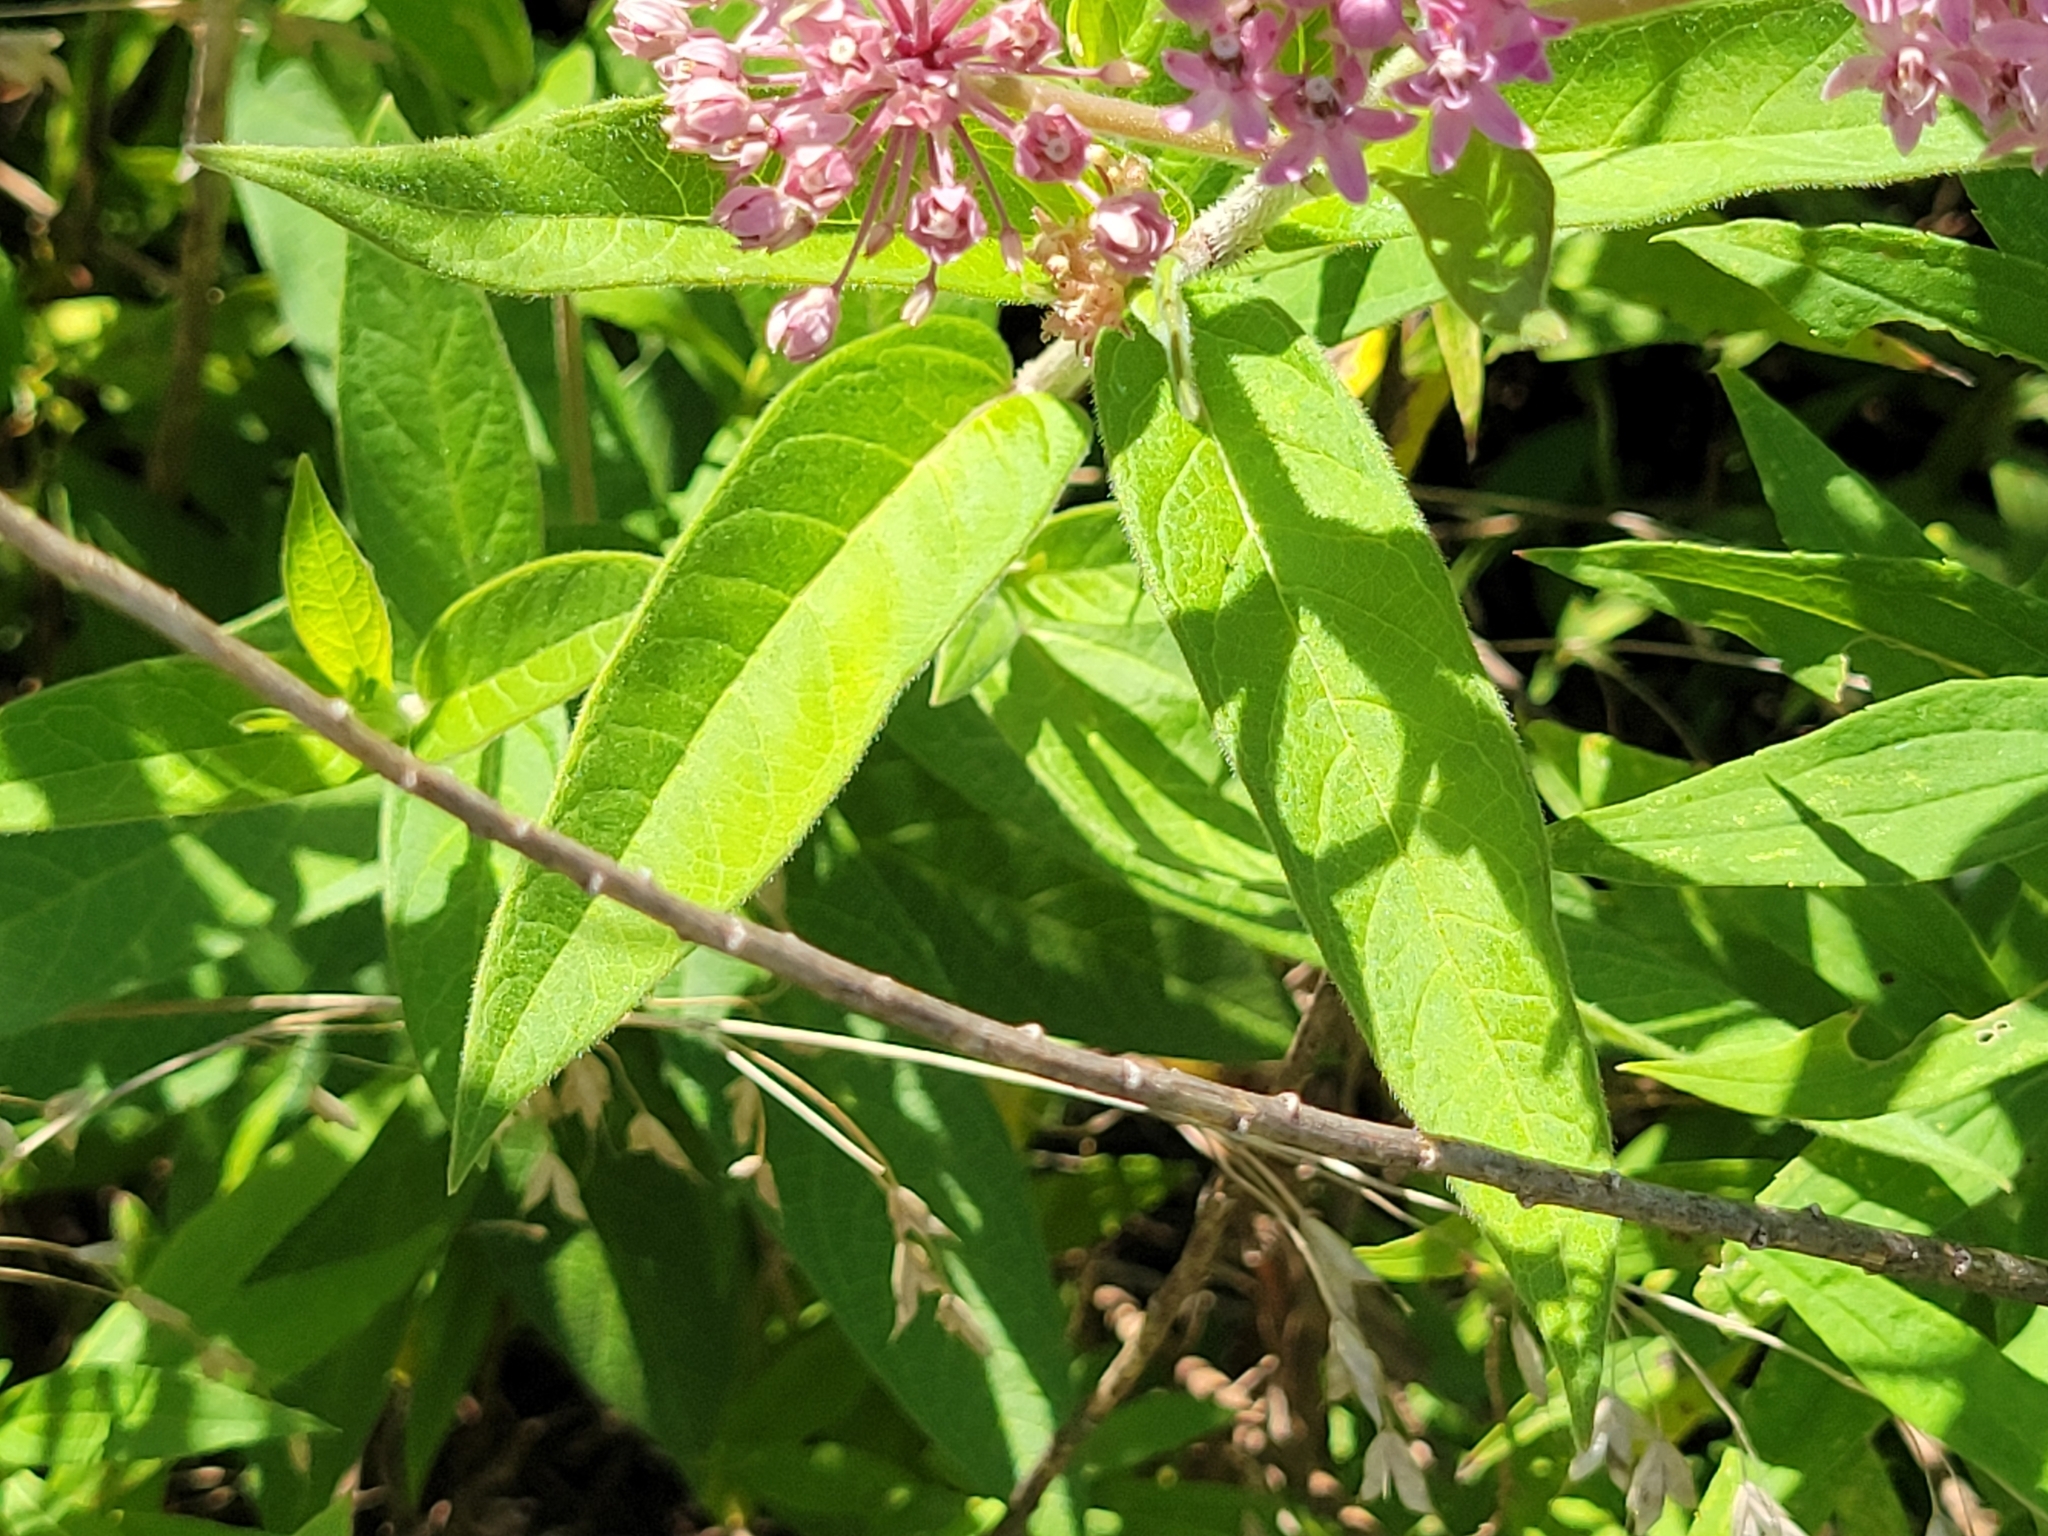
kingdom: Plantae
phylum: Tracheophyta
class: Magnoliopsida
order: Gentianales
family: Apocynaceae
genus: Asclepias
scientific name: Asclepias incarnata
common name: Swamp milkweed
